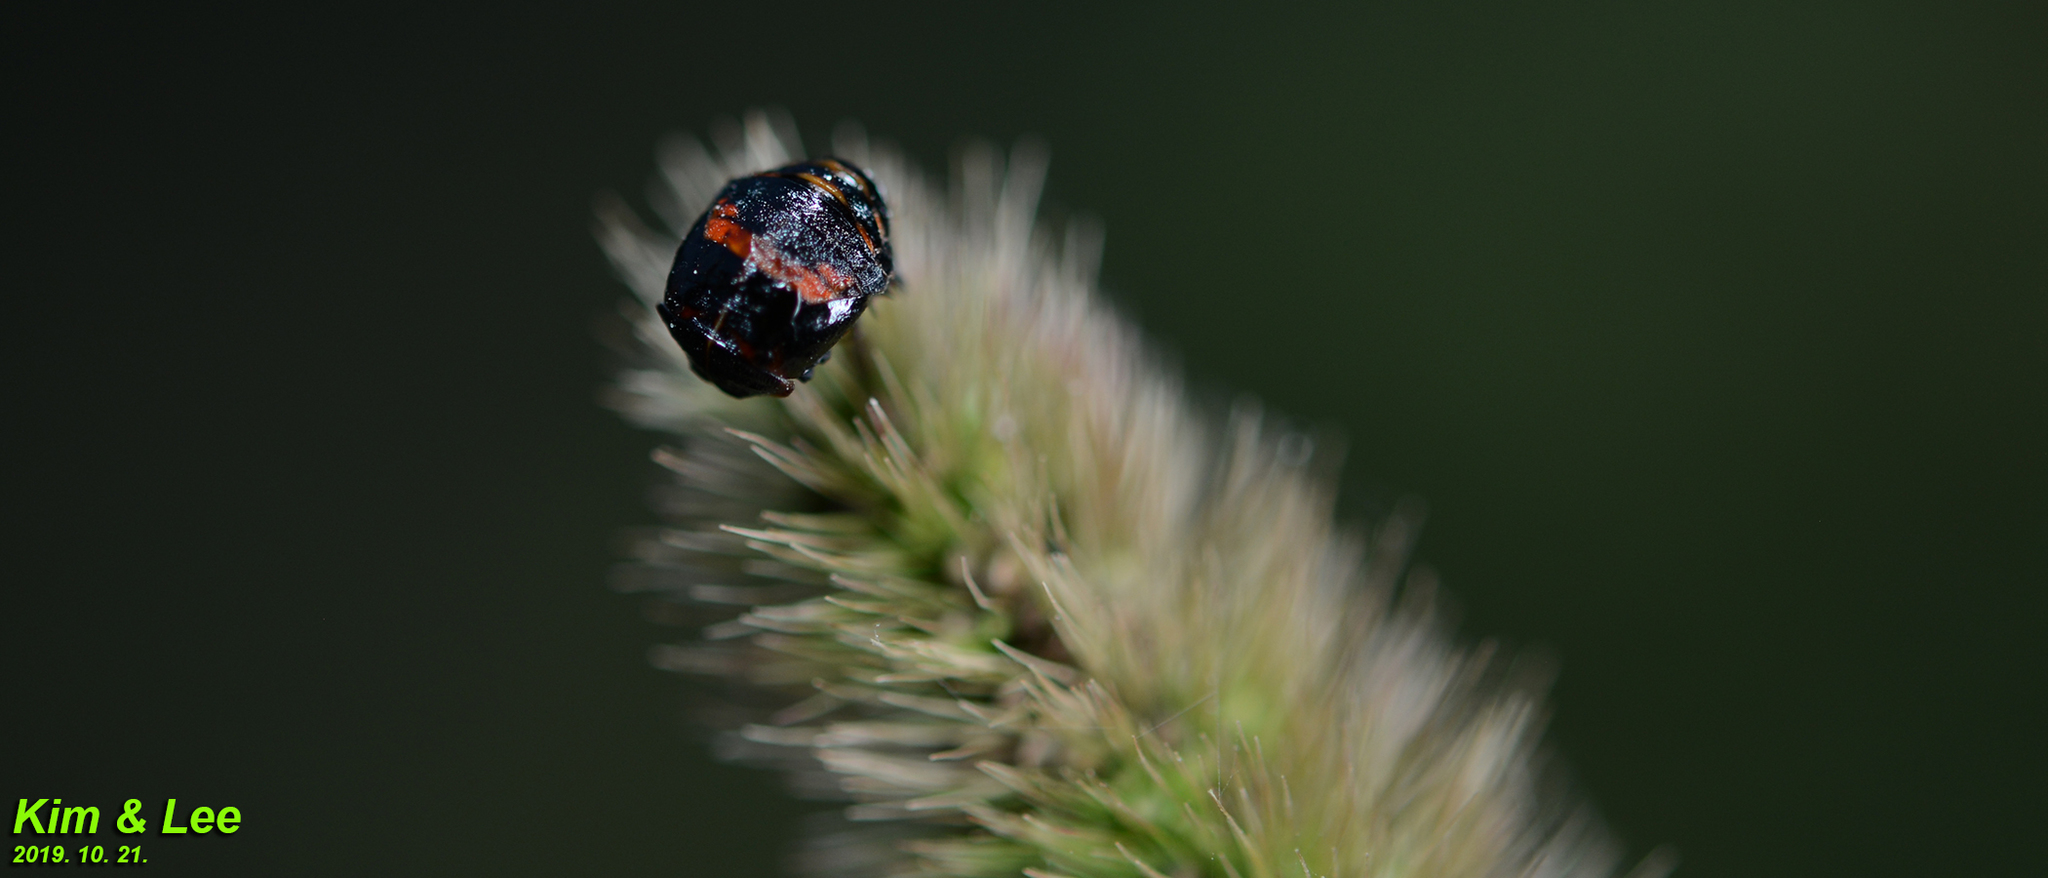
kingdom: Animalia
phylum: Arthropoda
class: Insecta
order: Coleoptera
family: Coccinellidae
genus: Harmonia
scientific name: Harmonia axyridis
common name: Harlequin ladybird
